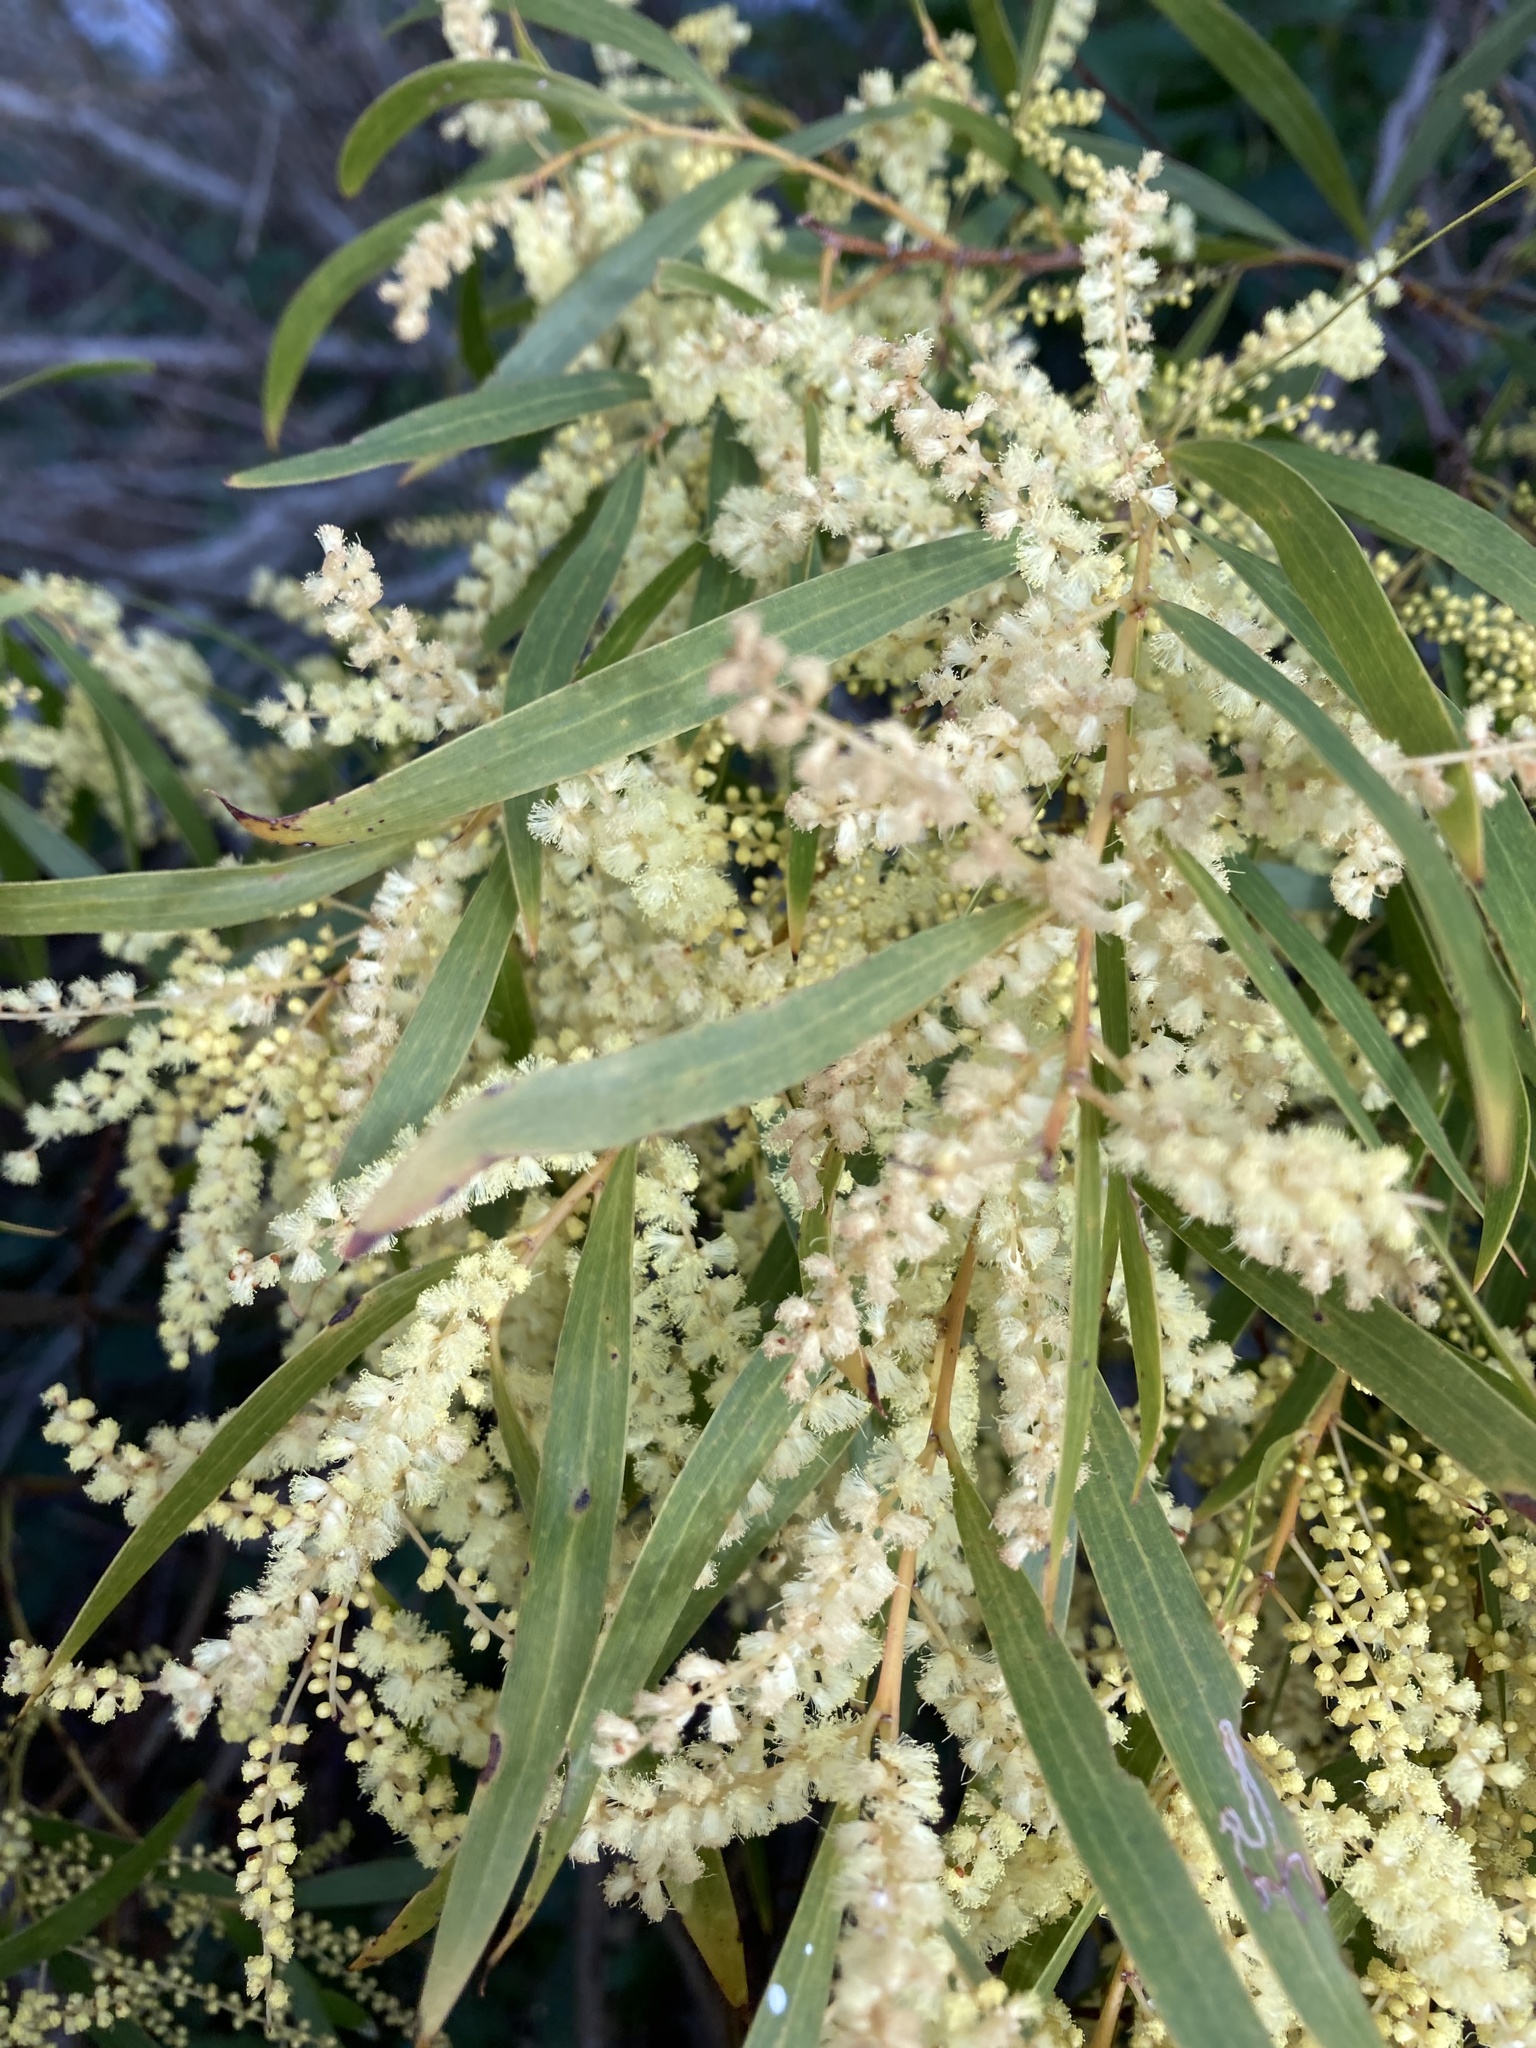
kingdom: Plantae
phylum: Tracheophyta
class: Magnoliopsida
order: Fabales
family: Fabaceae
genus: Acacia
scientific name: Acacia floribunda
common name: Gossamer wattle
